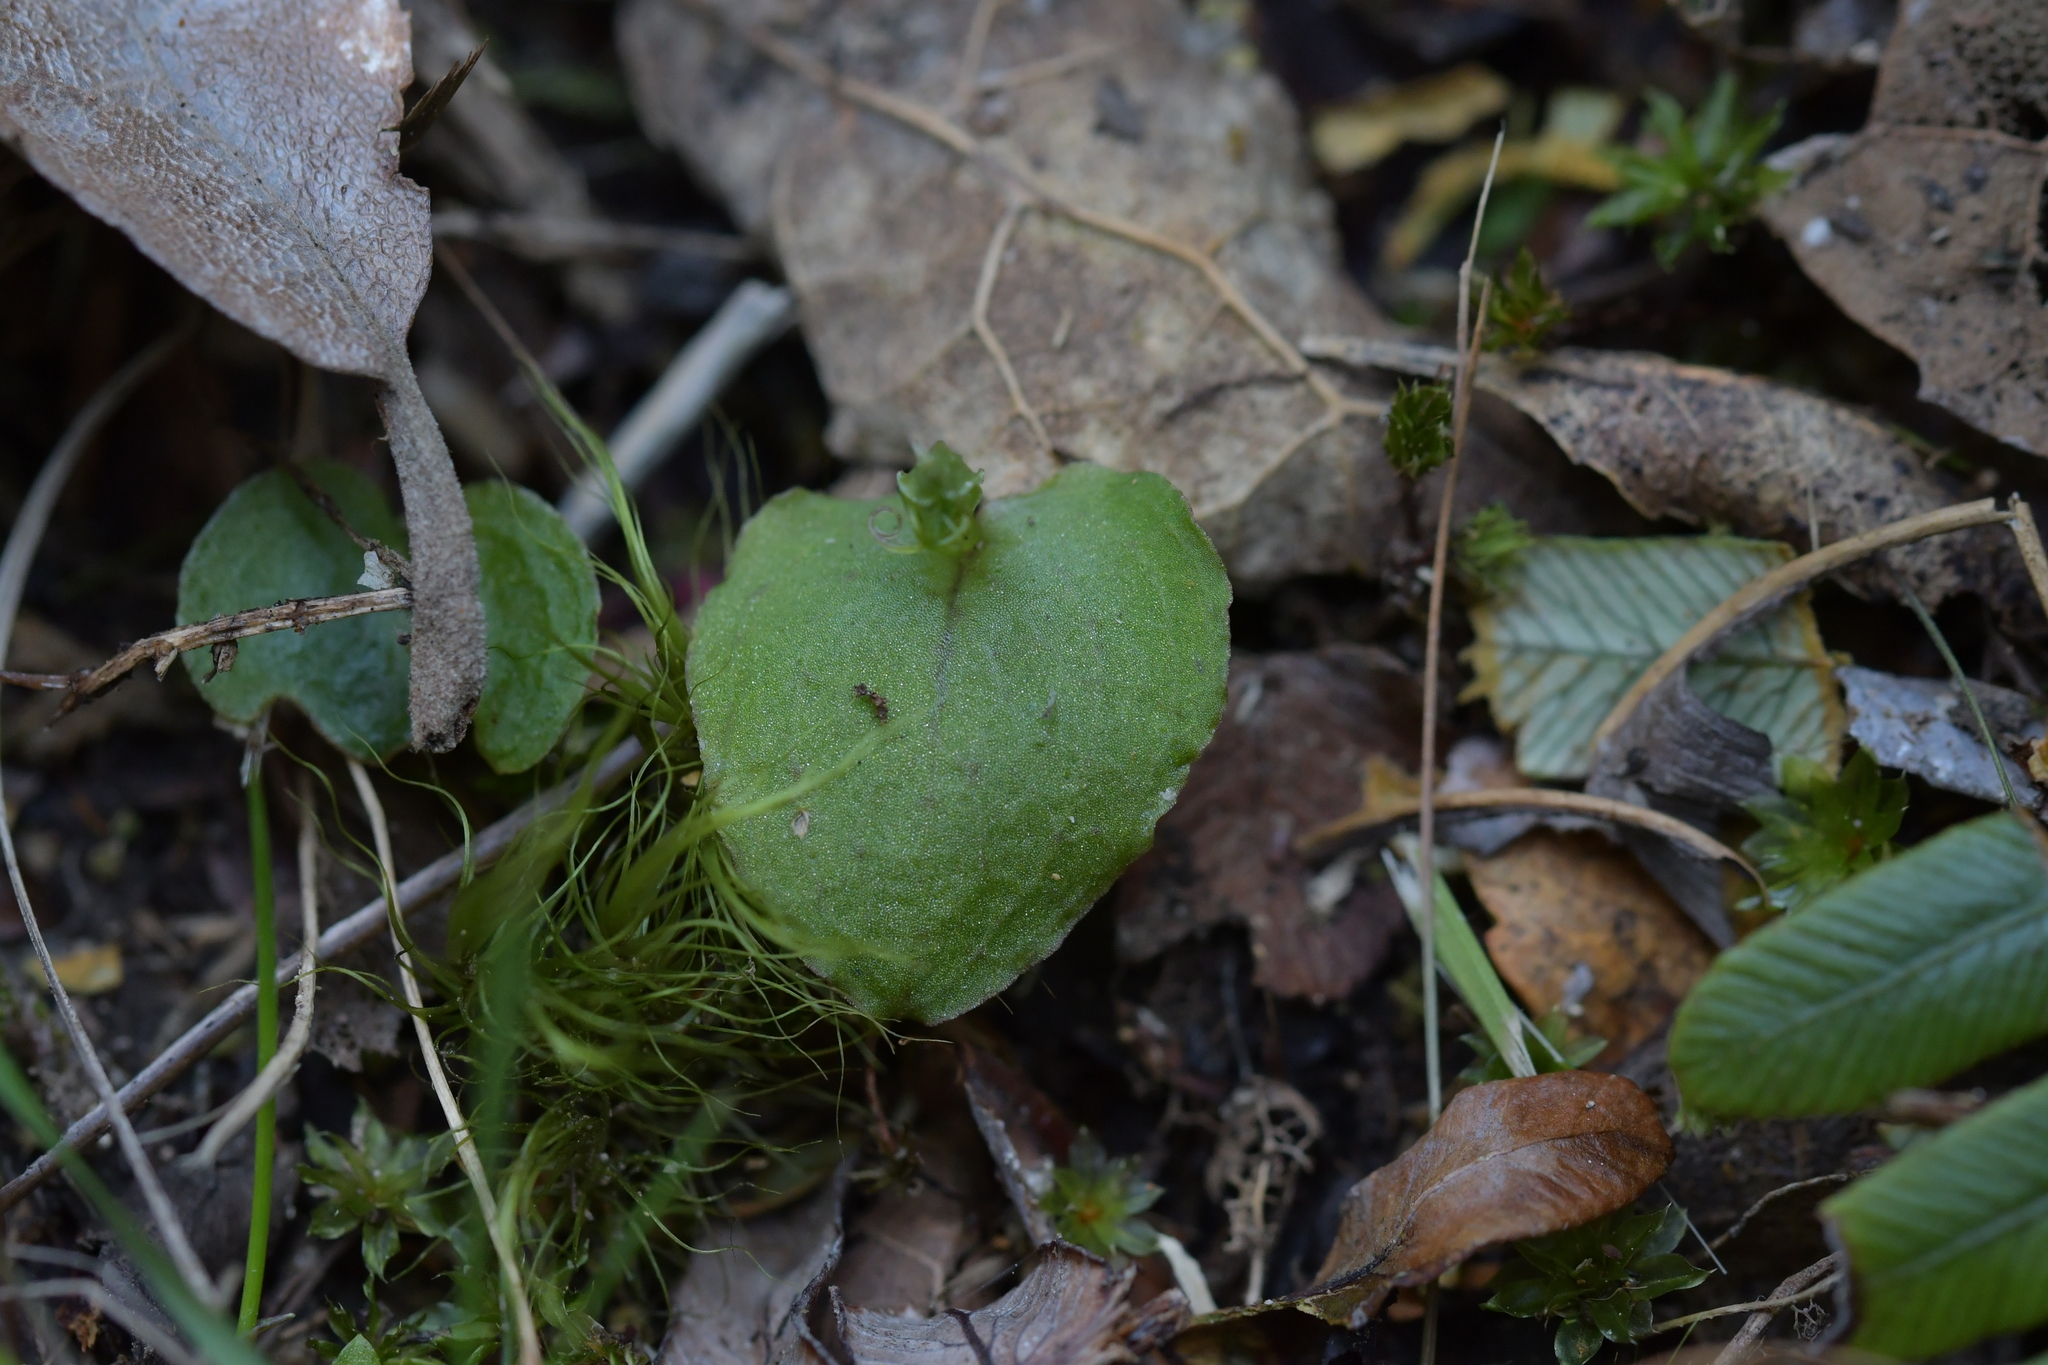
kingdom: Plantae
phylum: Tracheophyta
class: Liliopsida
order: Asparagales
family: Orchidaceae
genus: Corybas
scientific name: Corybas oblongus
